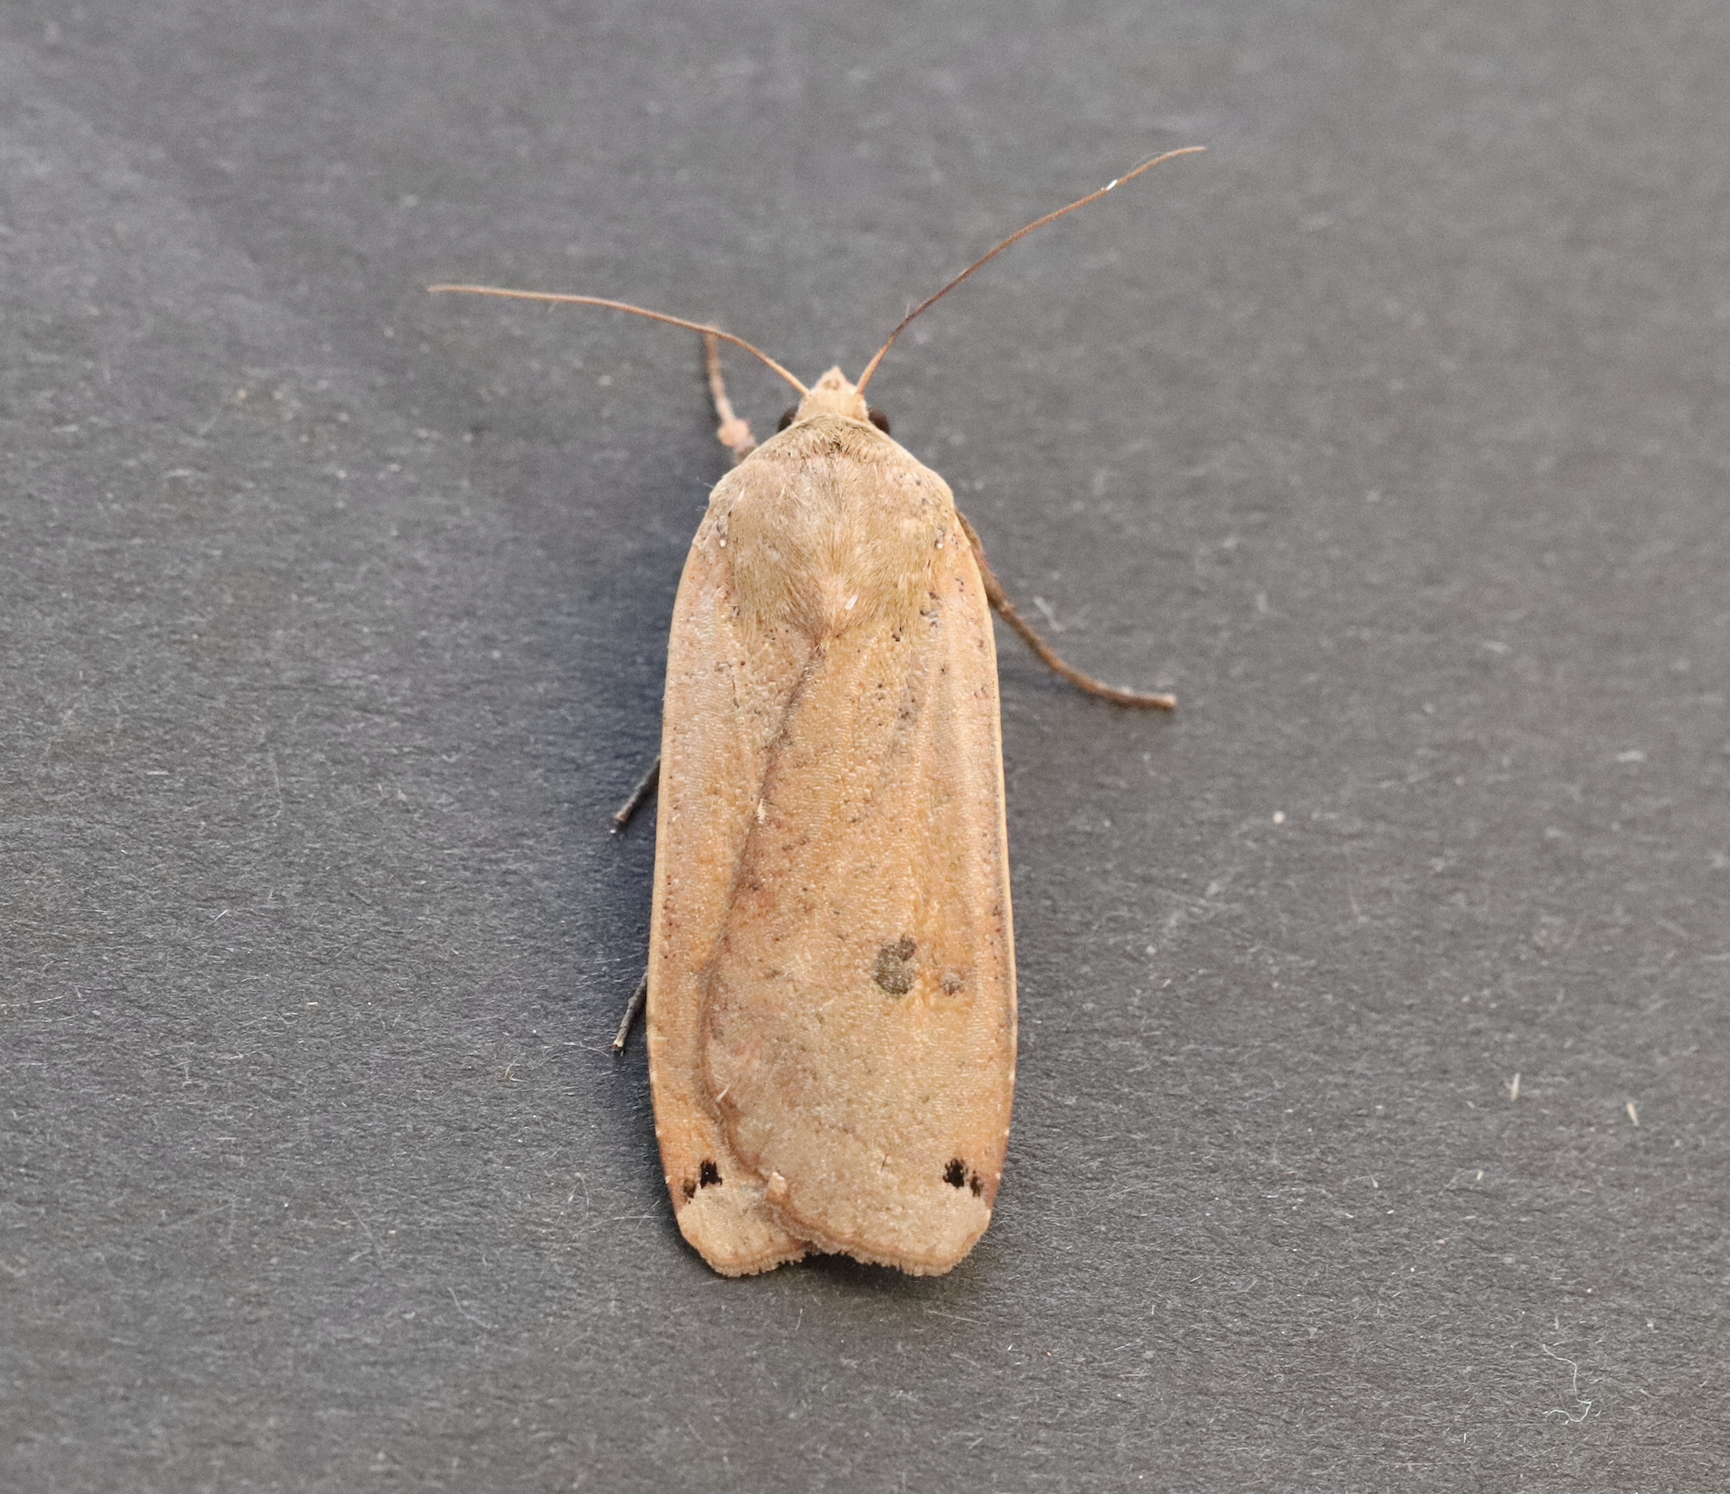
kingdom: Animalia
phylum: Arthropoda
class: Insecta
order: Lepidoptera
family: Noctuidae
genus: Noctua
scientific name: Noctua pronuba
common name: Large yellow underwing
